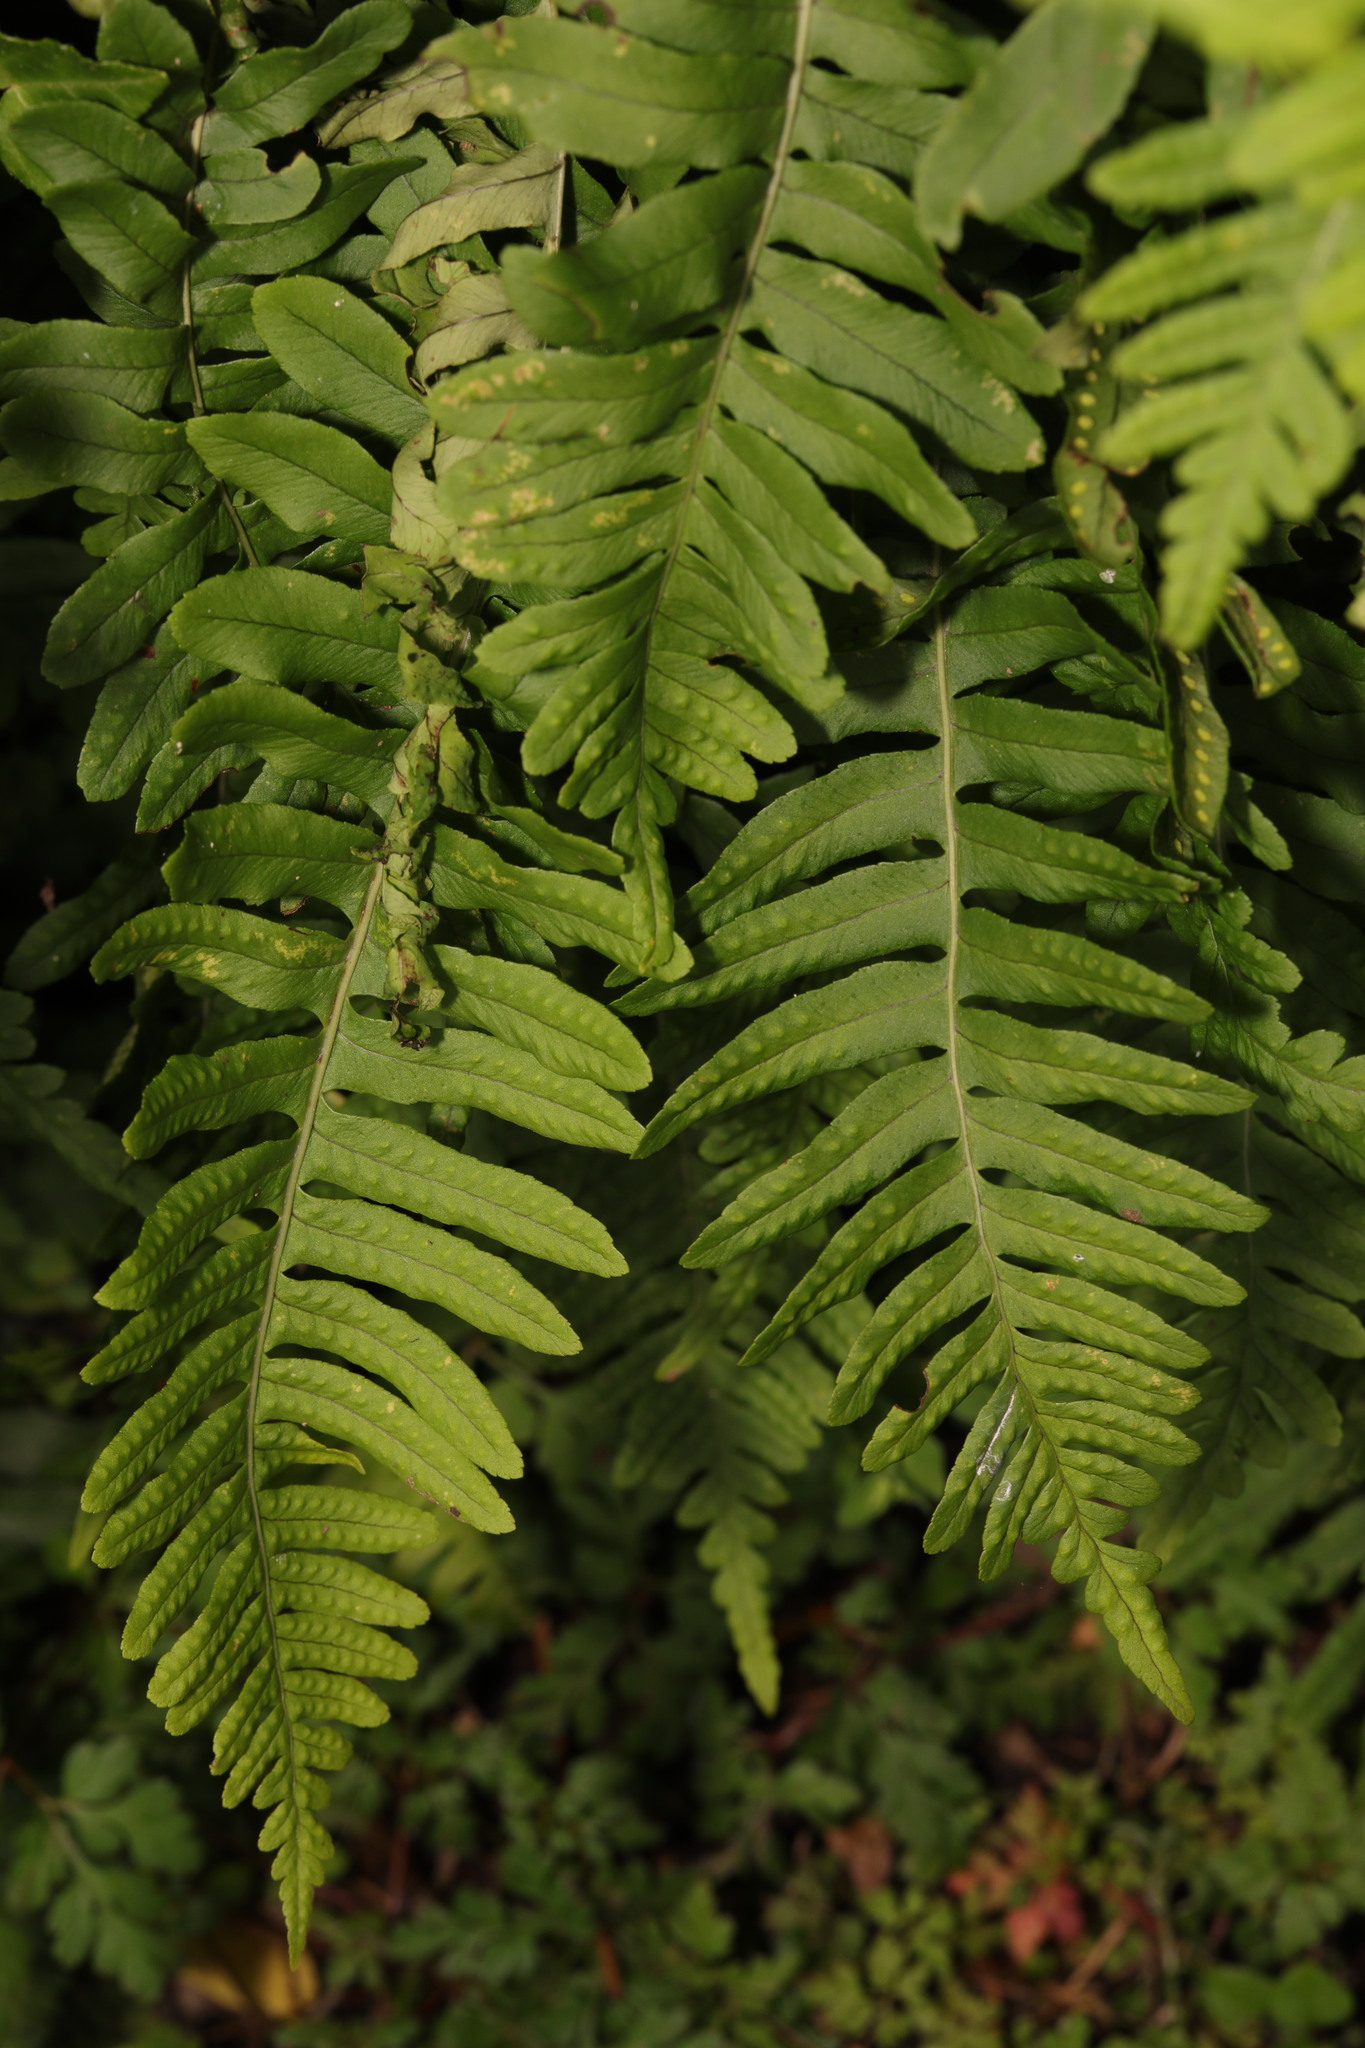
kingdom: Plantae
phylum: Tracheophyta
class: Polypodiopsida
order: Polypodiales
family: Polypodiaceae
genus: Polypodium
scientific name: Polypodium vulgare
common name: Common polypody
